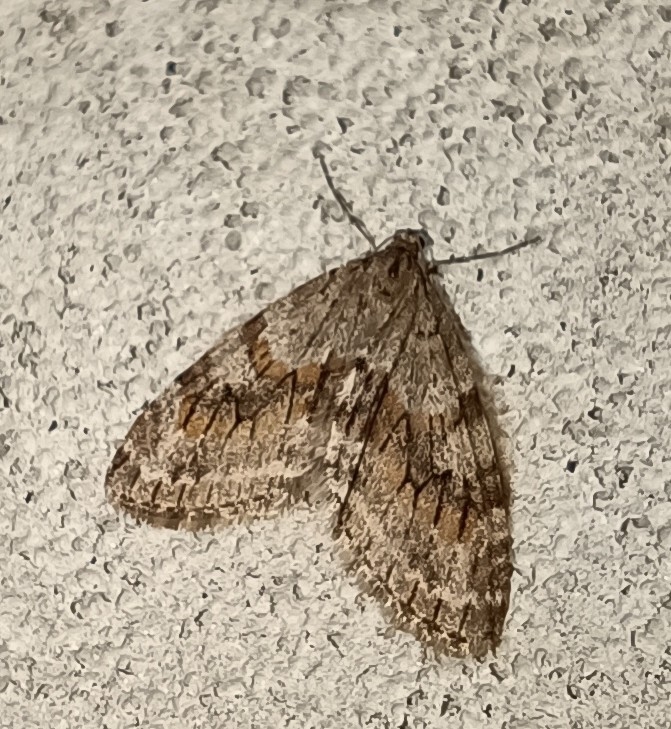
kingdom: Animalia
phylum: Arthropoda
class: Insecta
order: Lepidoptera
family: Geometridae
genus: Trichopteryx
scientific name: Trichopteryx polycommata
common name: Barred tooth-striped
